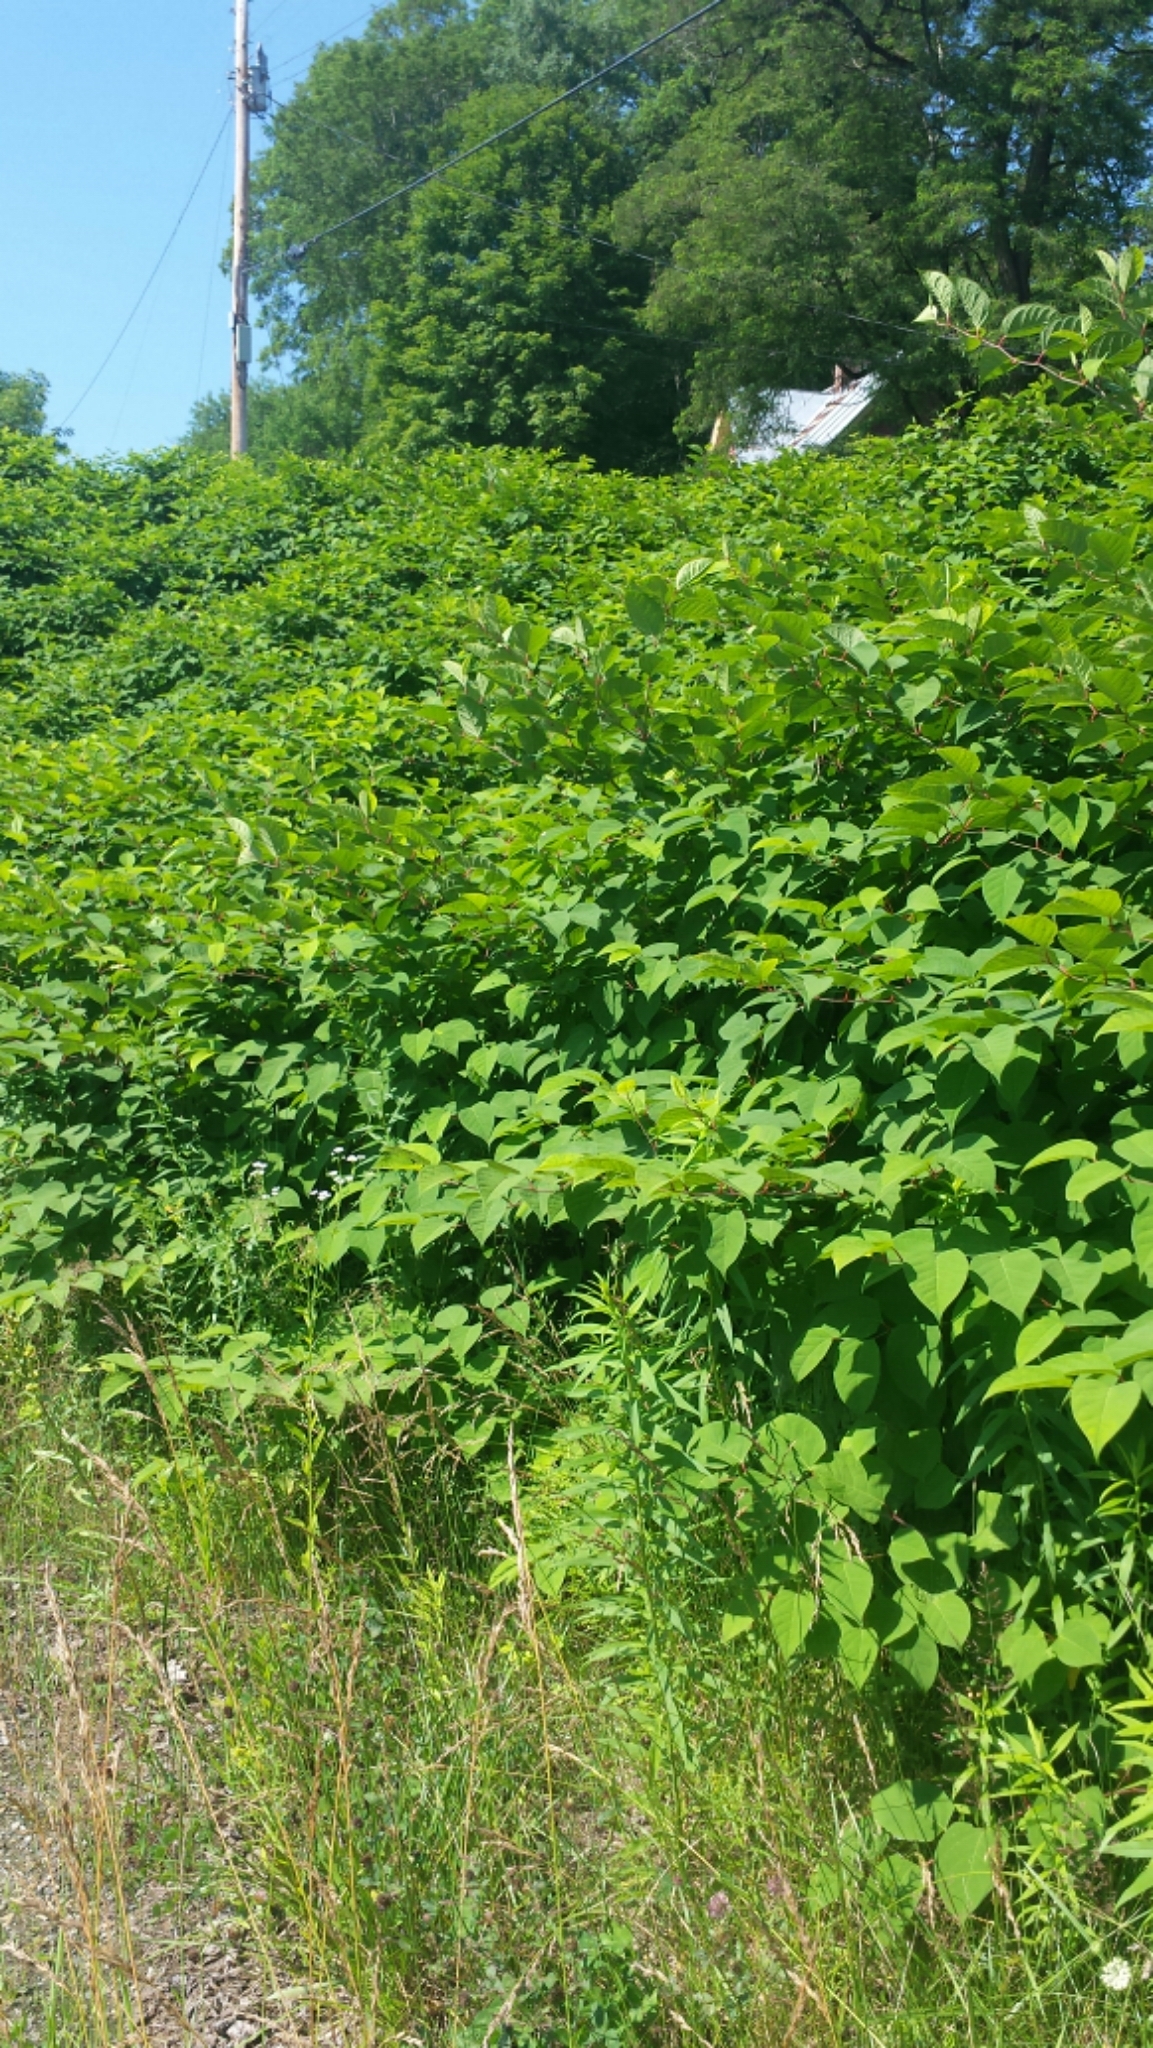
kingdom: Plantae
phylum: Tracheophyta
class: Magnoliopsida
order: Caryophyllales
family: Polygonaceae
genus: Reynoutria
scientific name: Reynoutria japonica
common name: Japanese knotweed
